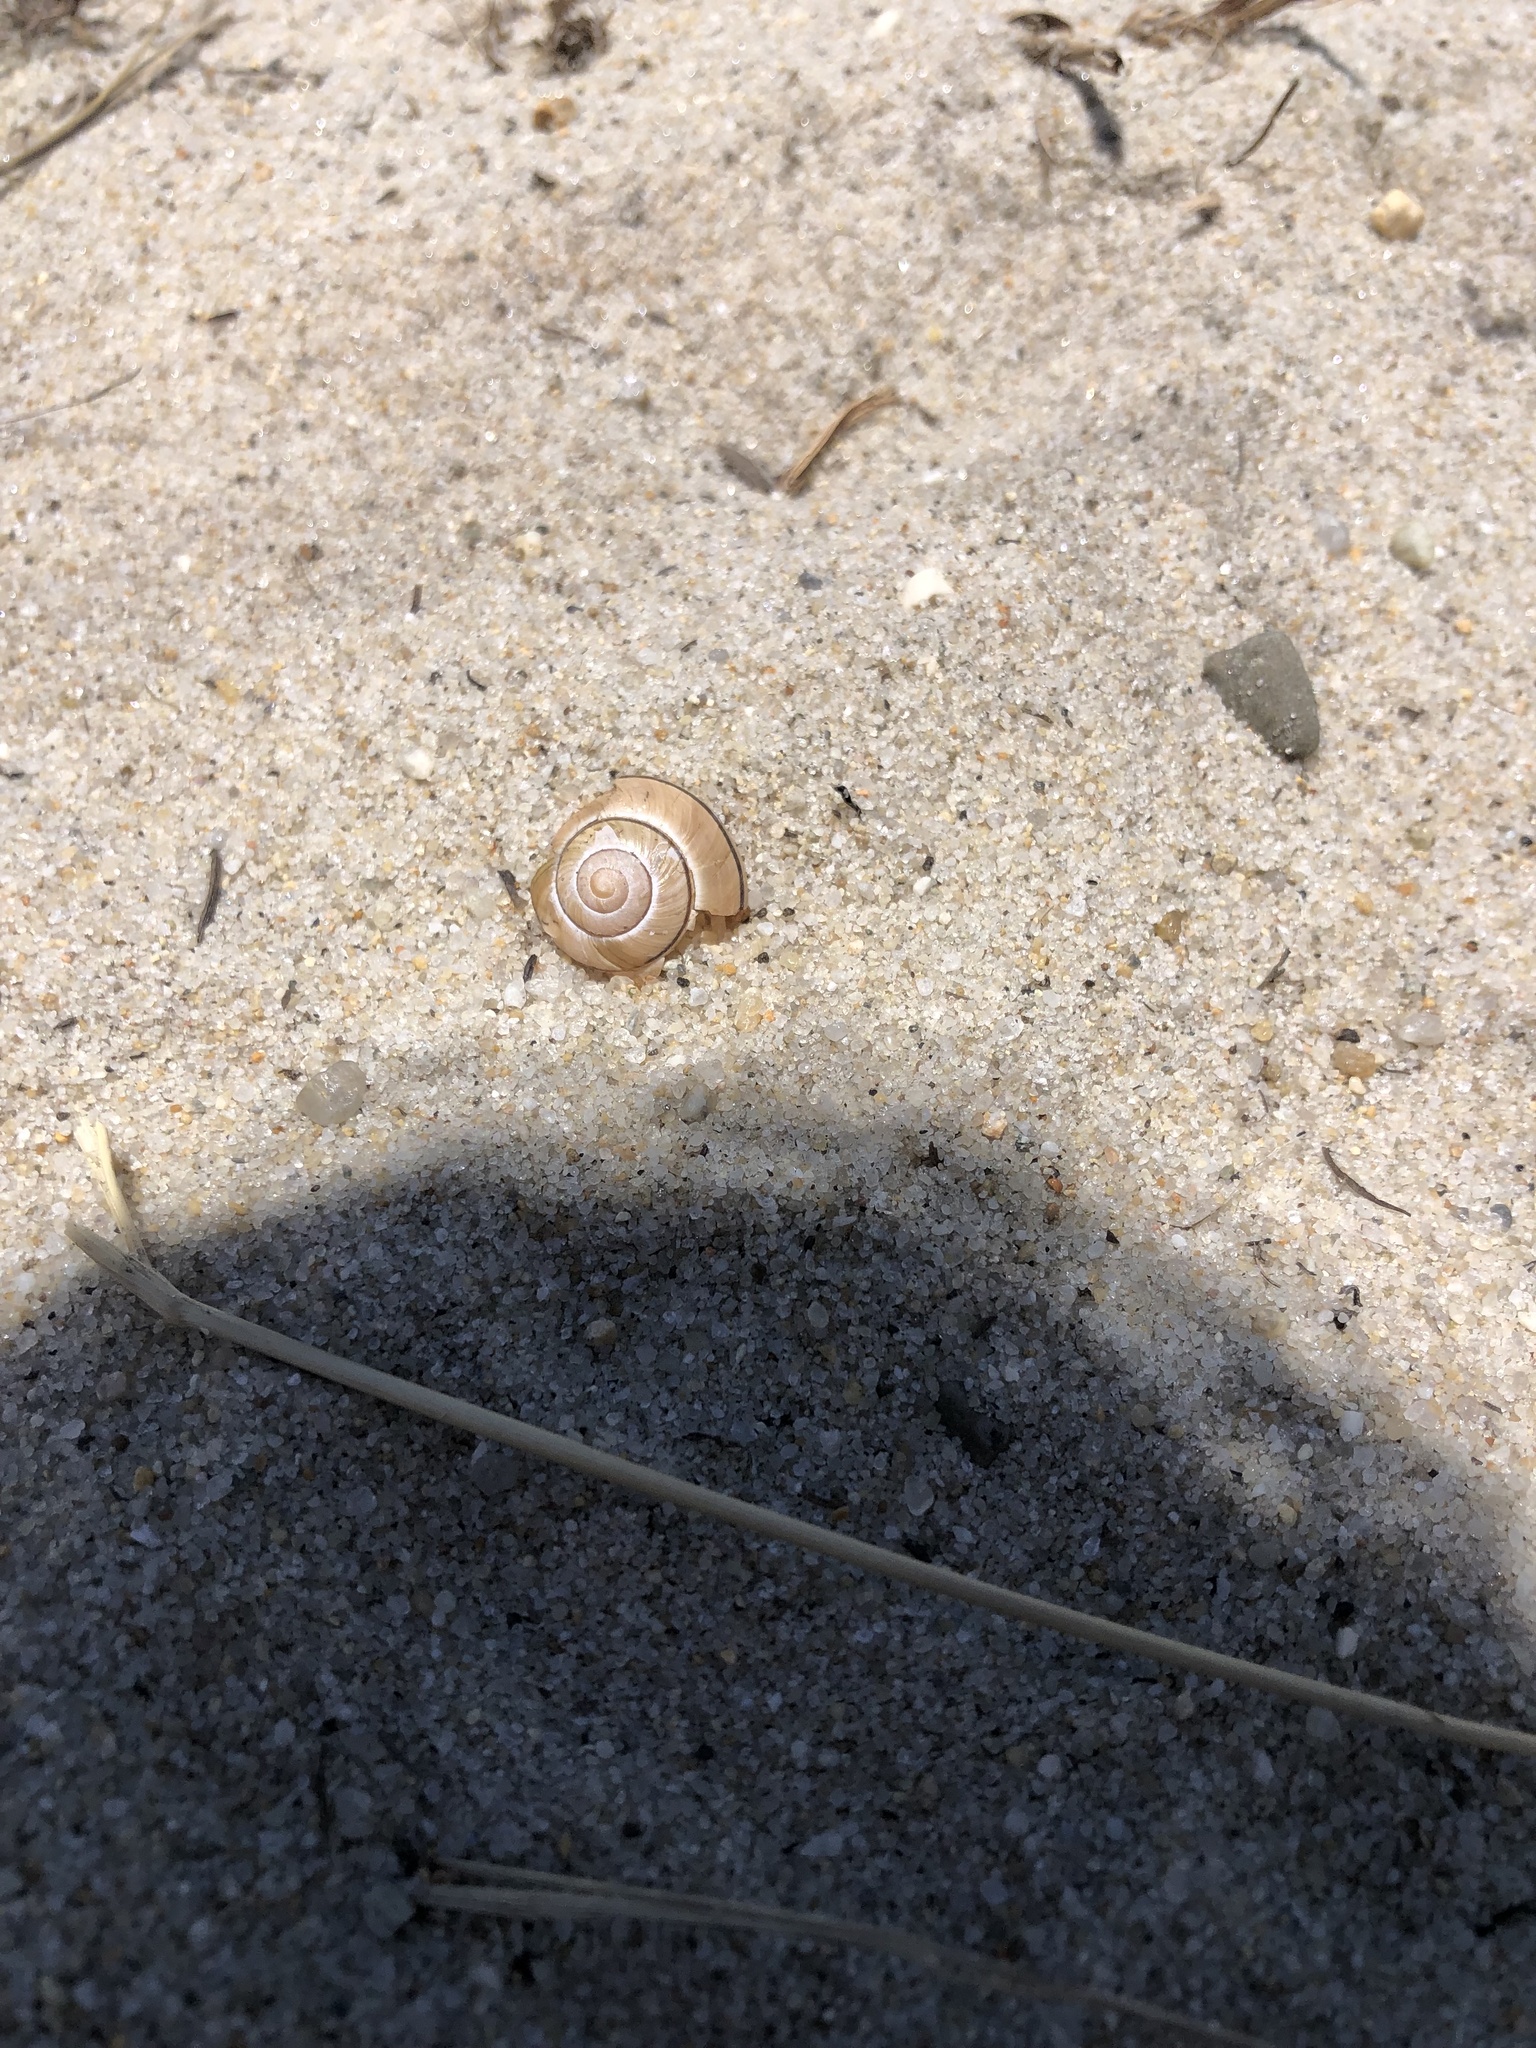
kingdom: Animalia
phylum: Mollusca
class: Gastropoda
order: Stylommatophora
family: Helicidae
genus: Cepaea
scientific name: Cepaea nemoralis
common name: Grovesnail
